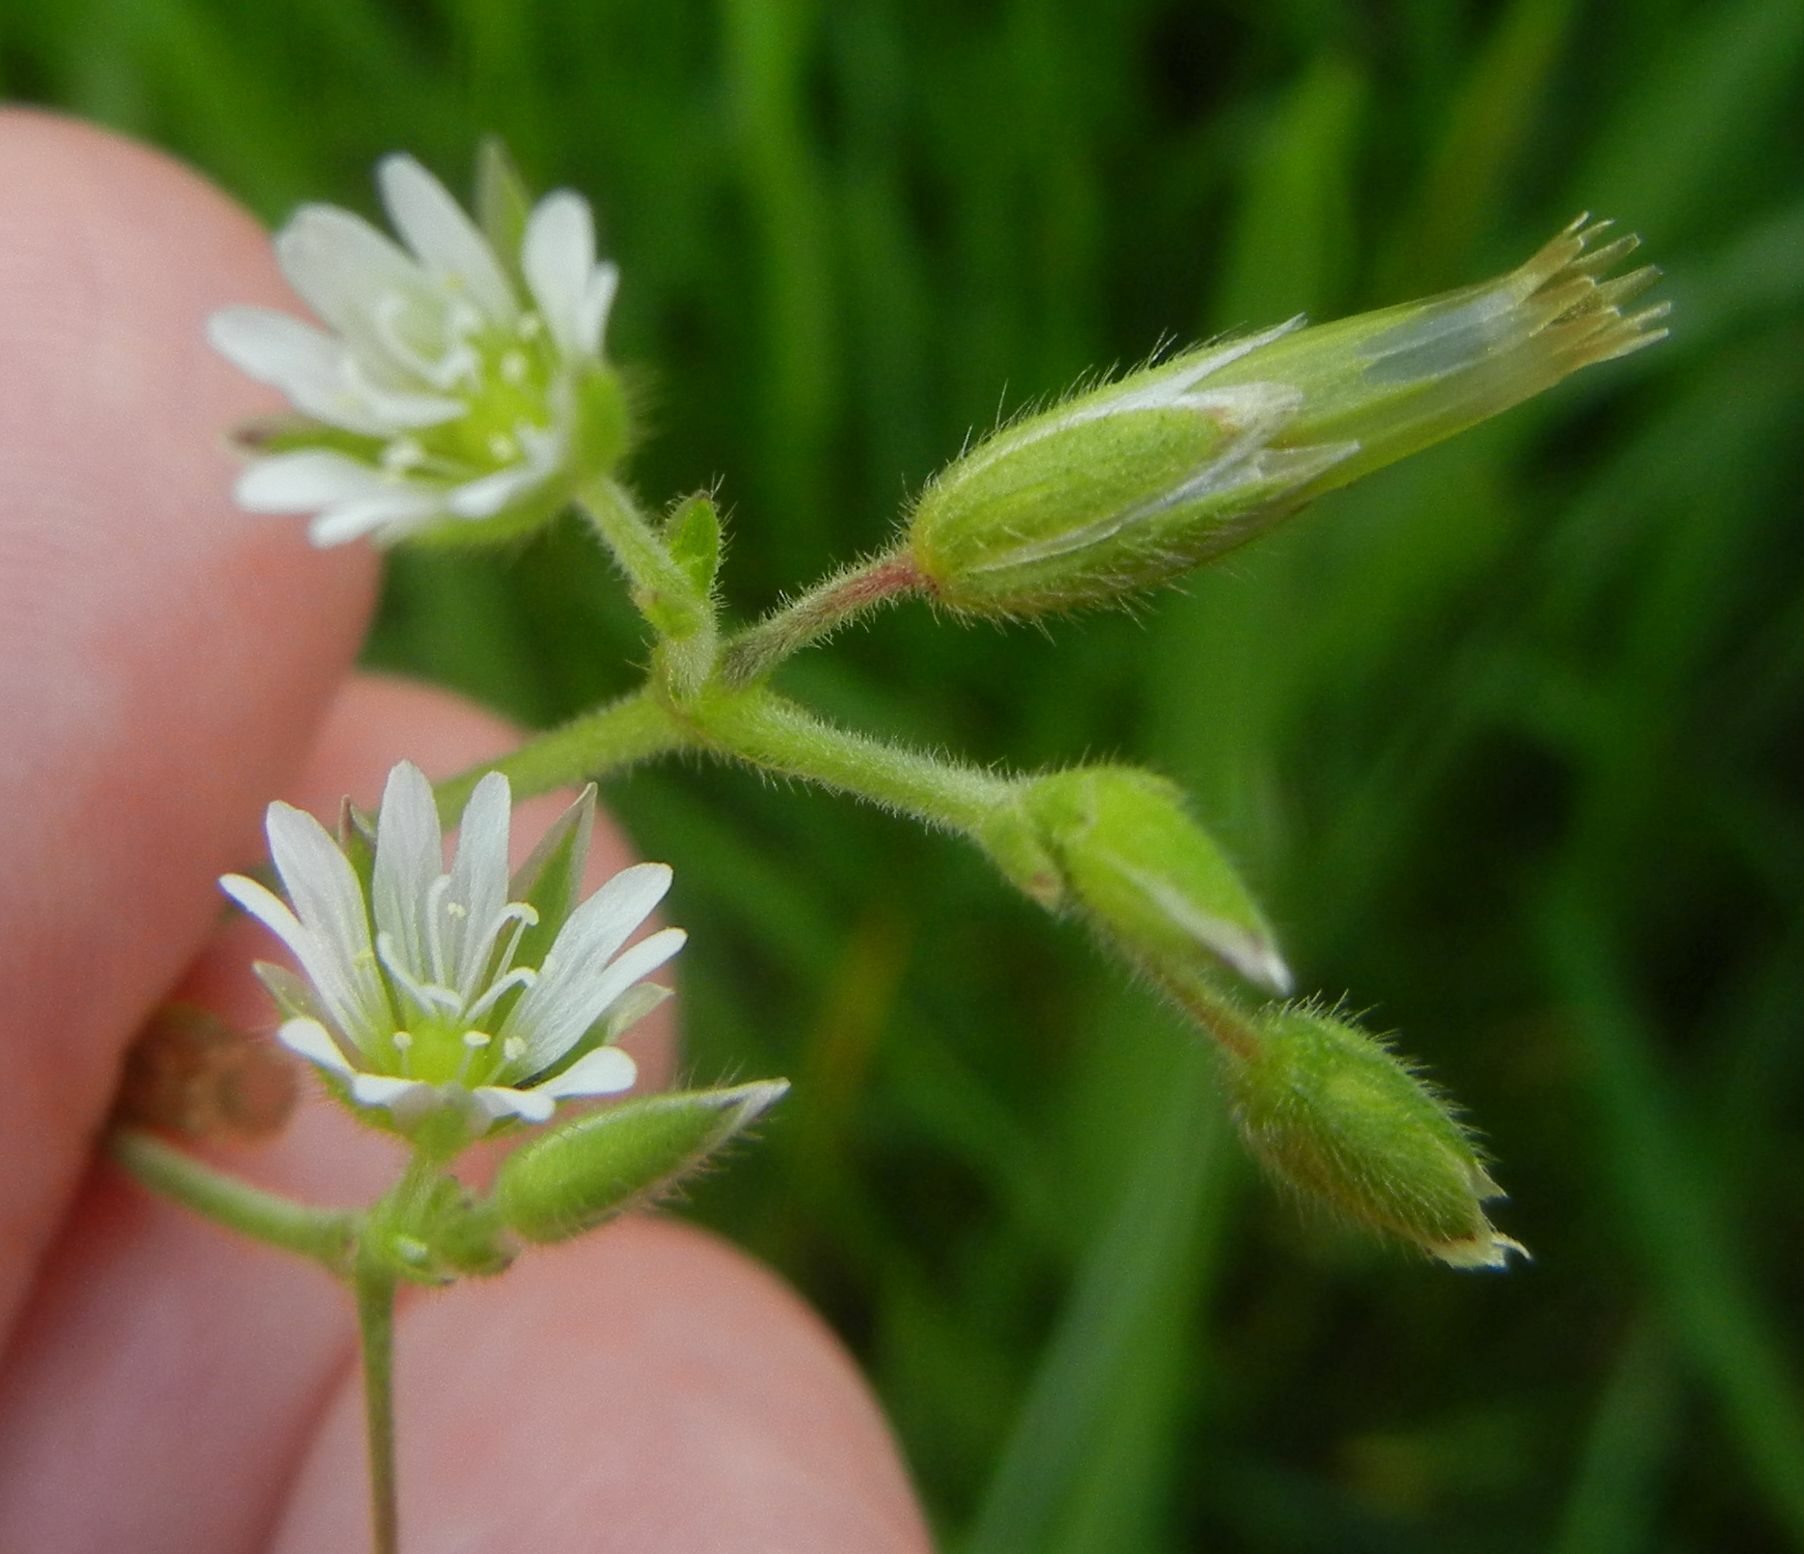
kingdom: Plantae
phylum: Tracheophyta
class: Magnoliopsida
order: Caryophyllales
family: Caryophyllaceae
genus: Cerastium
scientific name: Cerastium fontanum
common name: Common mouse-ear
